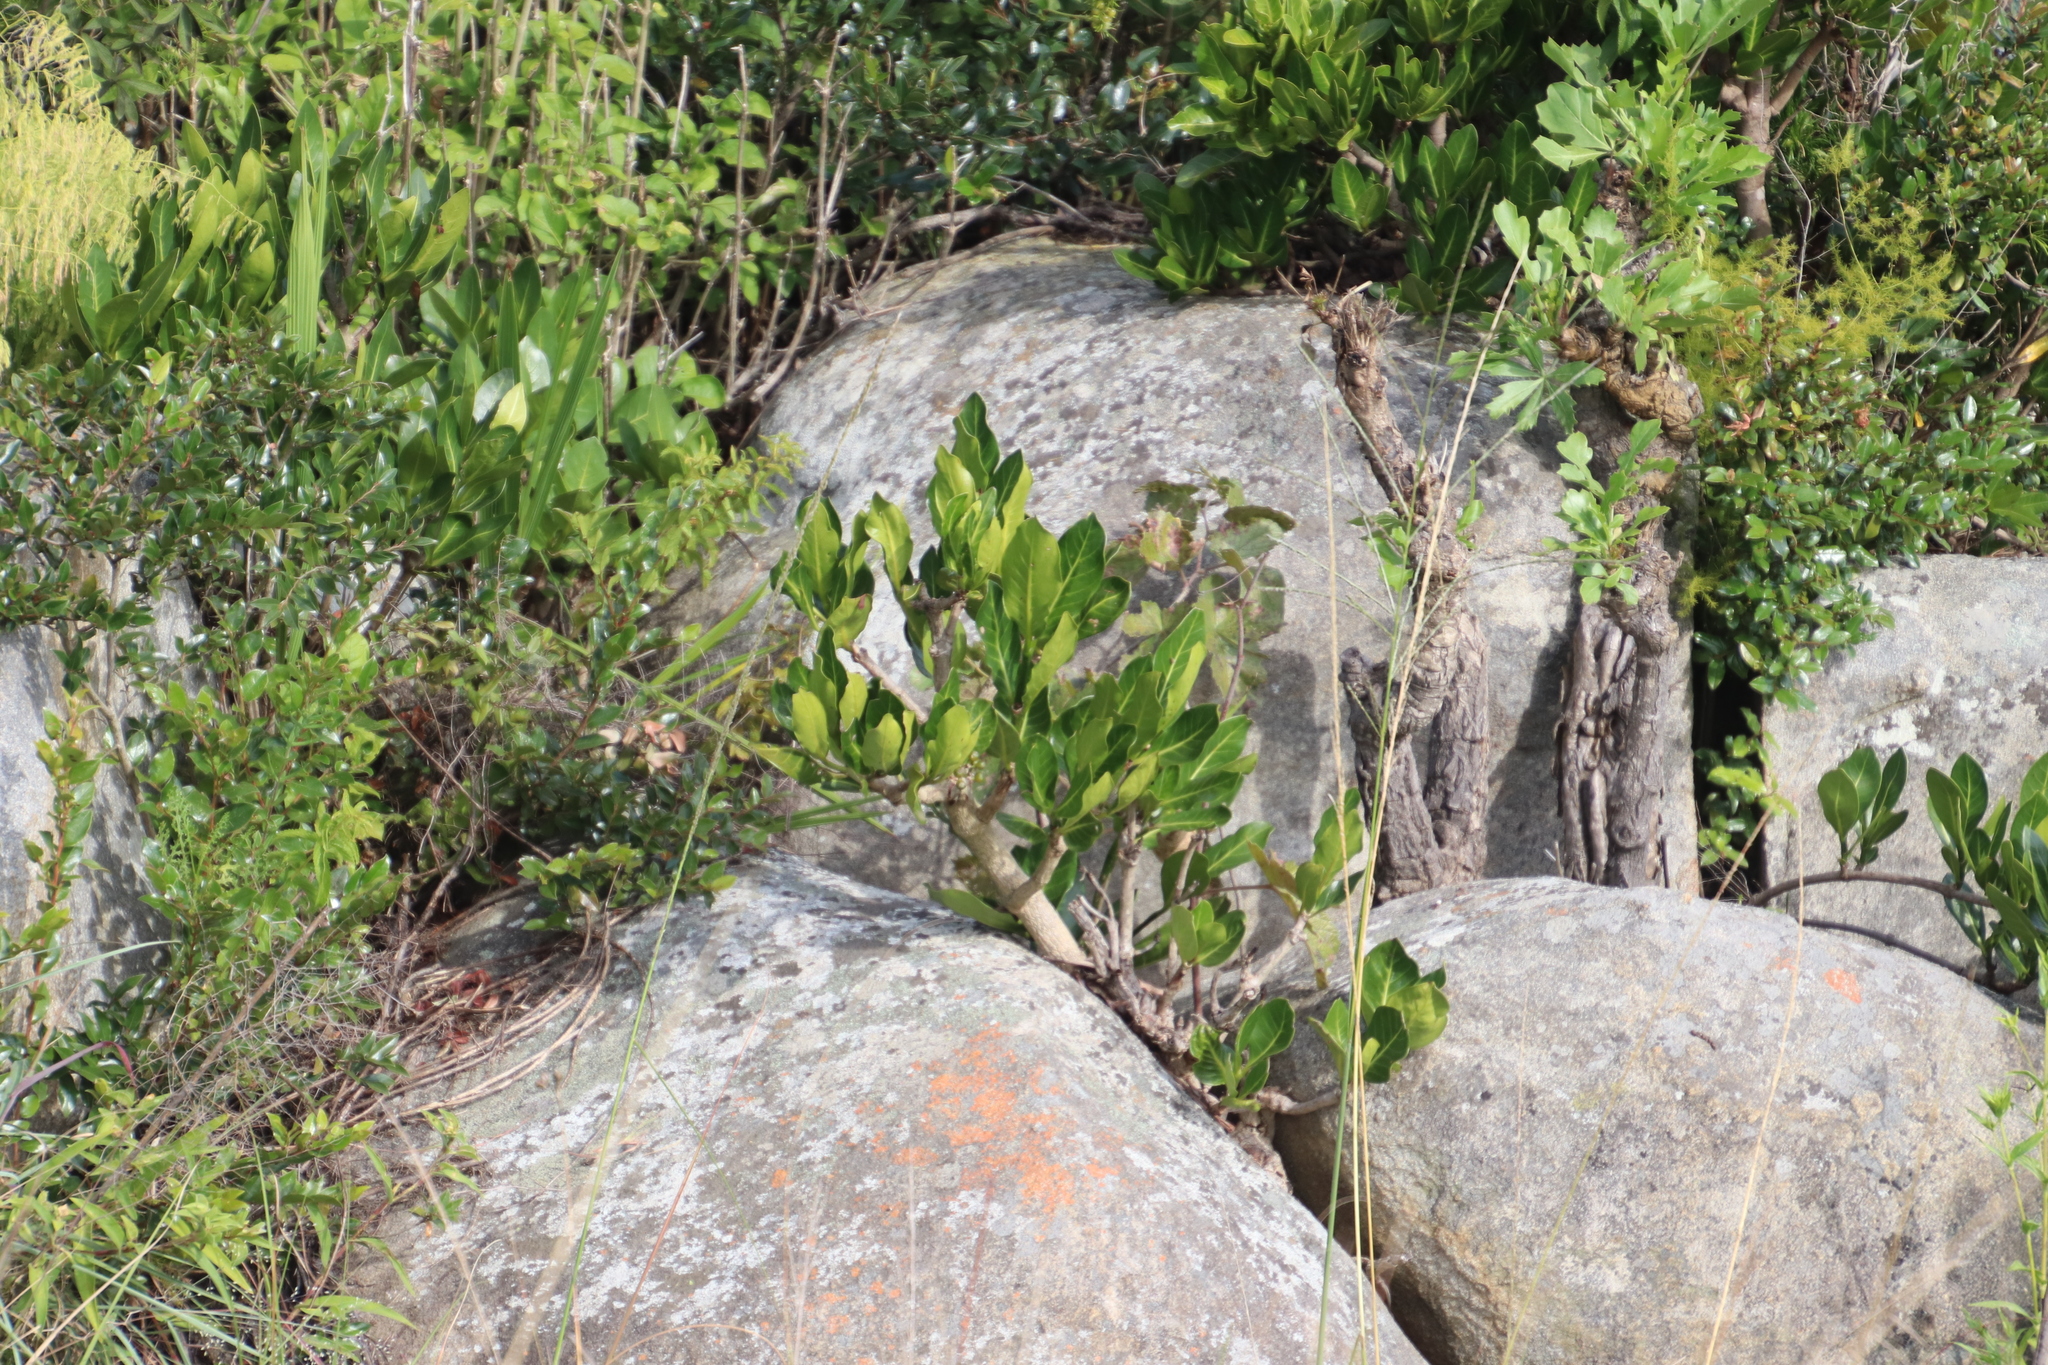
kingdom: Plantae
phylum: Tracheophyta
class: Magnoliopsida
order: Gentianales
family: Rubiaceae
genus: Psychotria
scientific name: Psychotria
